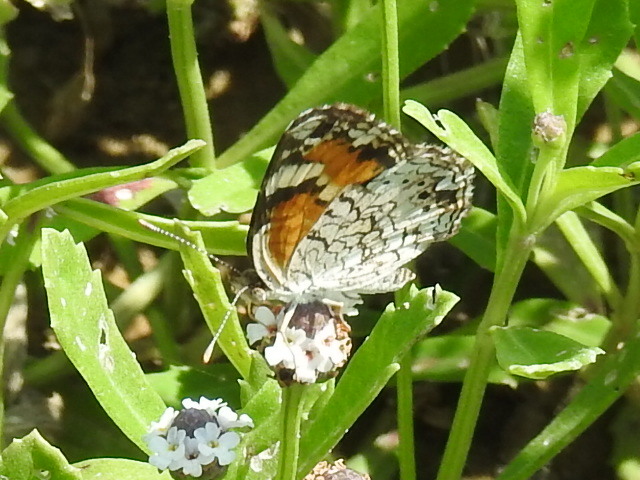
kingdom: Animalia
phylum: Arthropoda
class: Insecta
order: Lepidoptera
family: Nymphalidae
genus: Phyciodes
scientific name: Phyciodes phaon
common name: Phaon crescent
